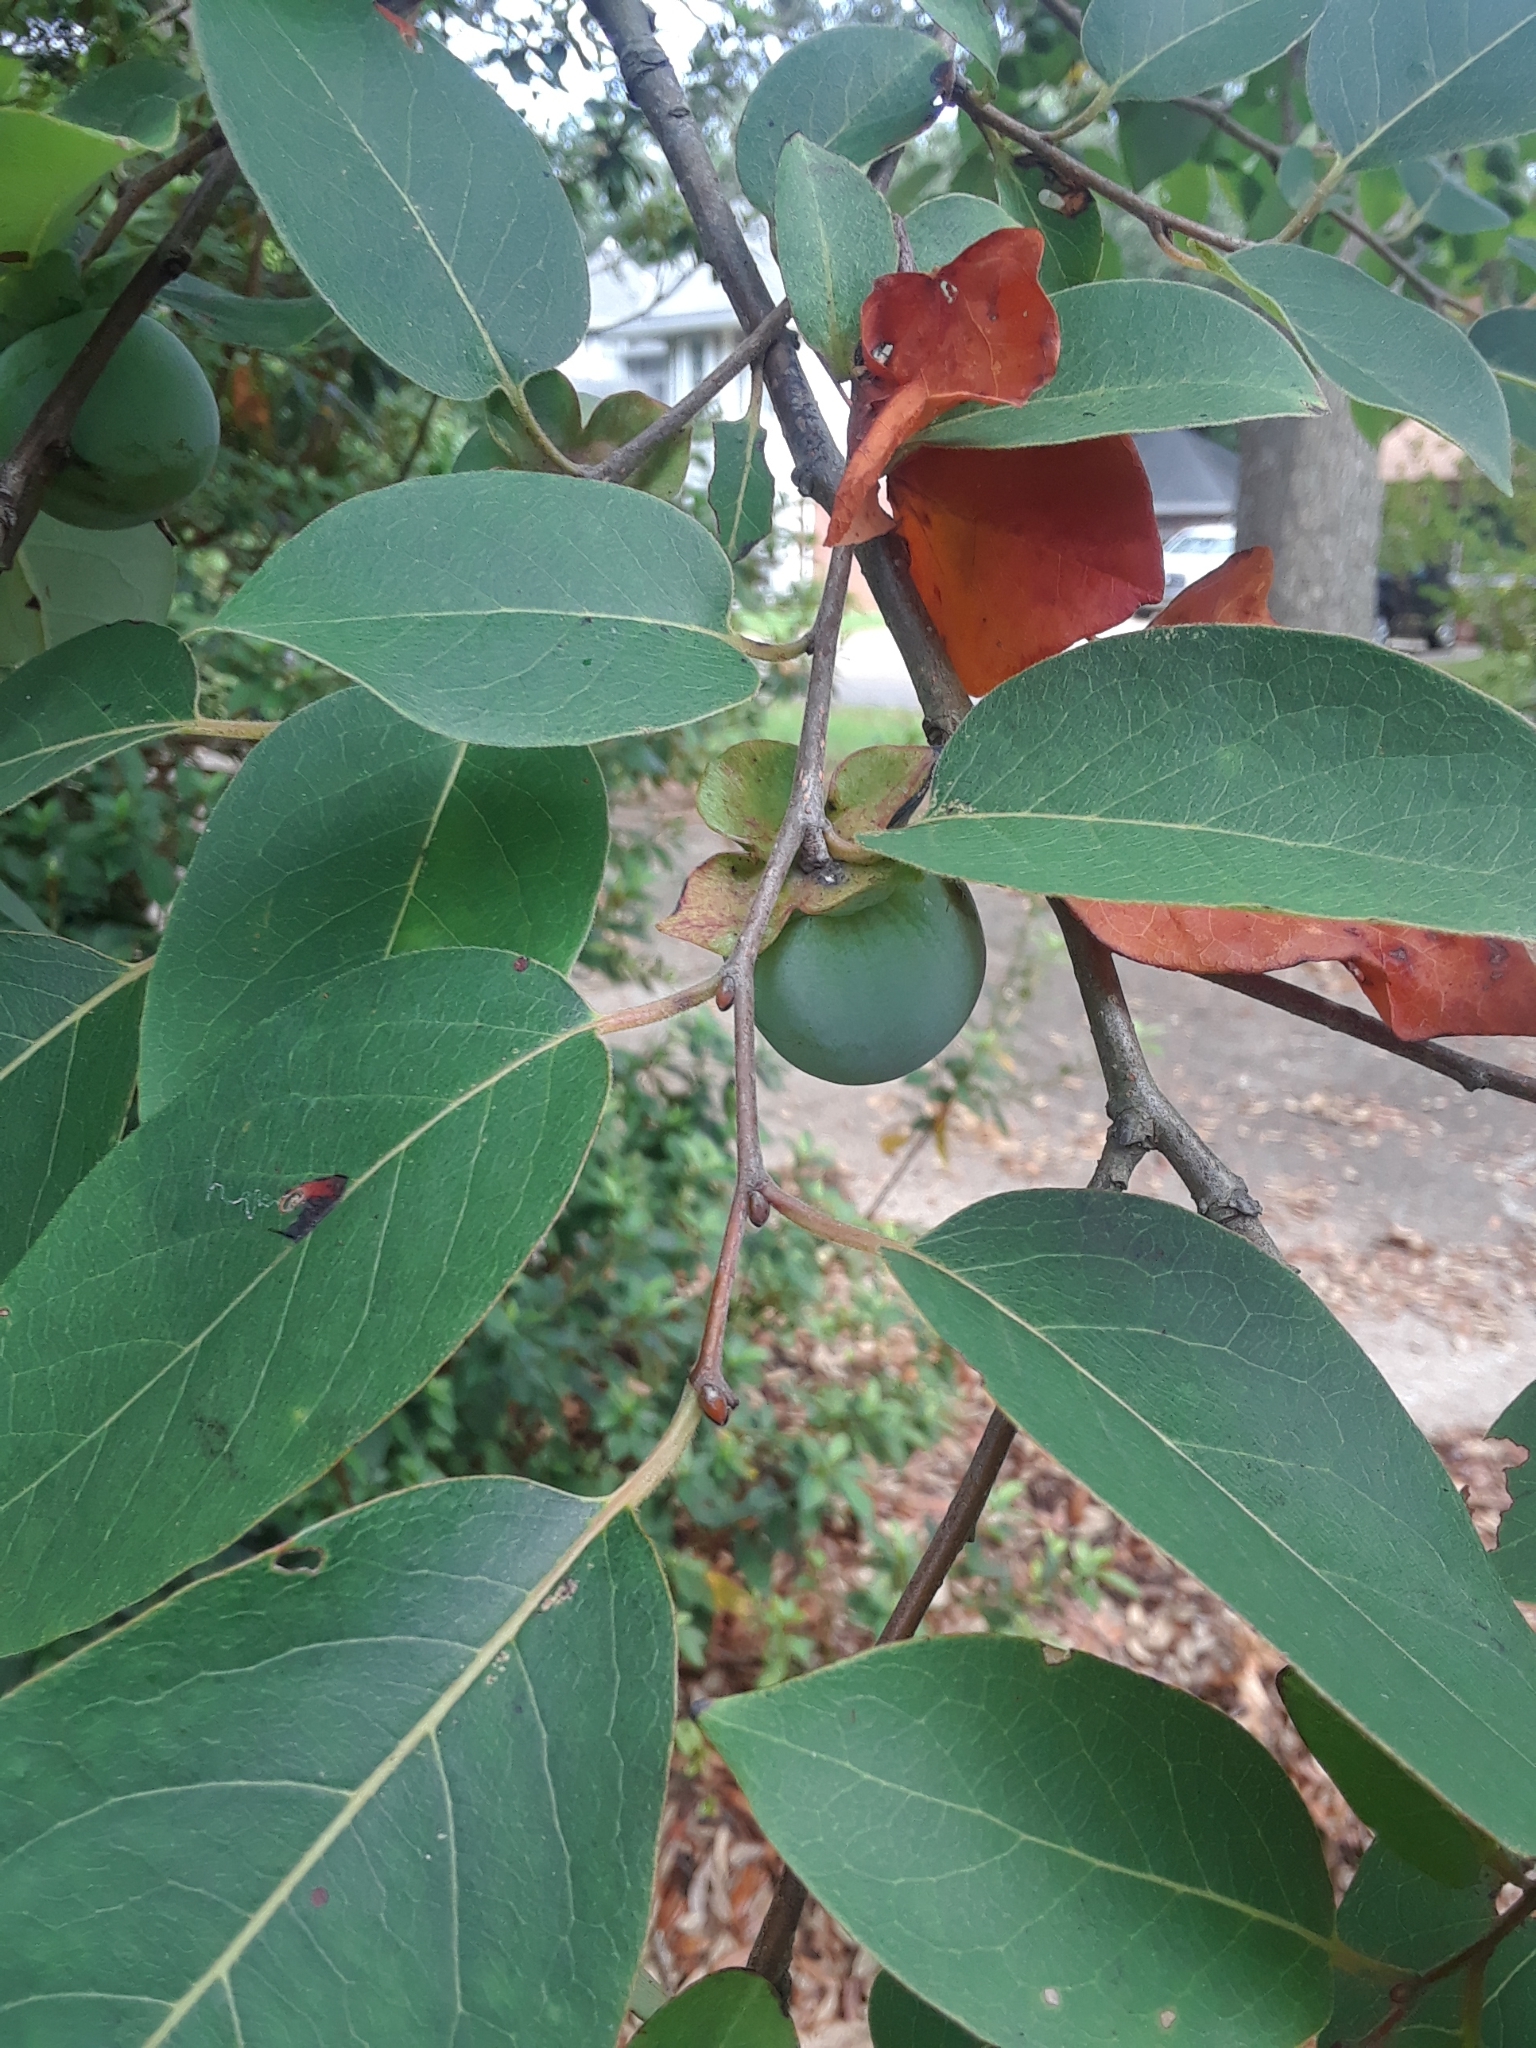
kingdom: Plantae
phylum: Tracheophyta
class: Magnoliopsida
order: Ericales
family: Ebenaceae
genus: Diospyros
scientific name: Diospyros virginiana
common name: Persimmon
